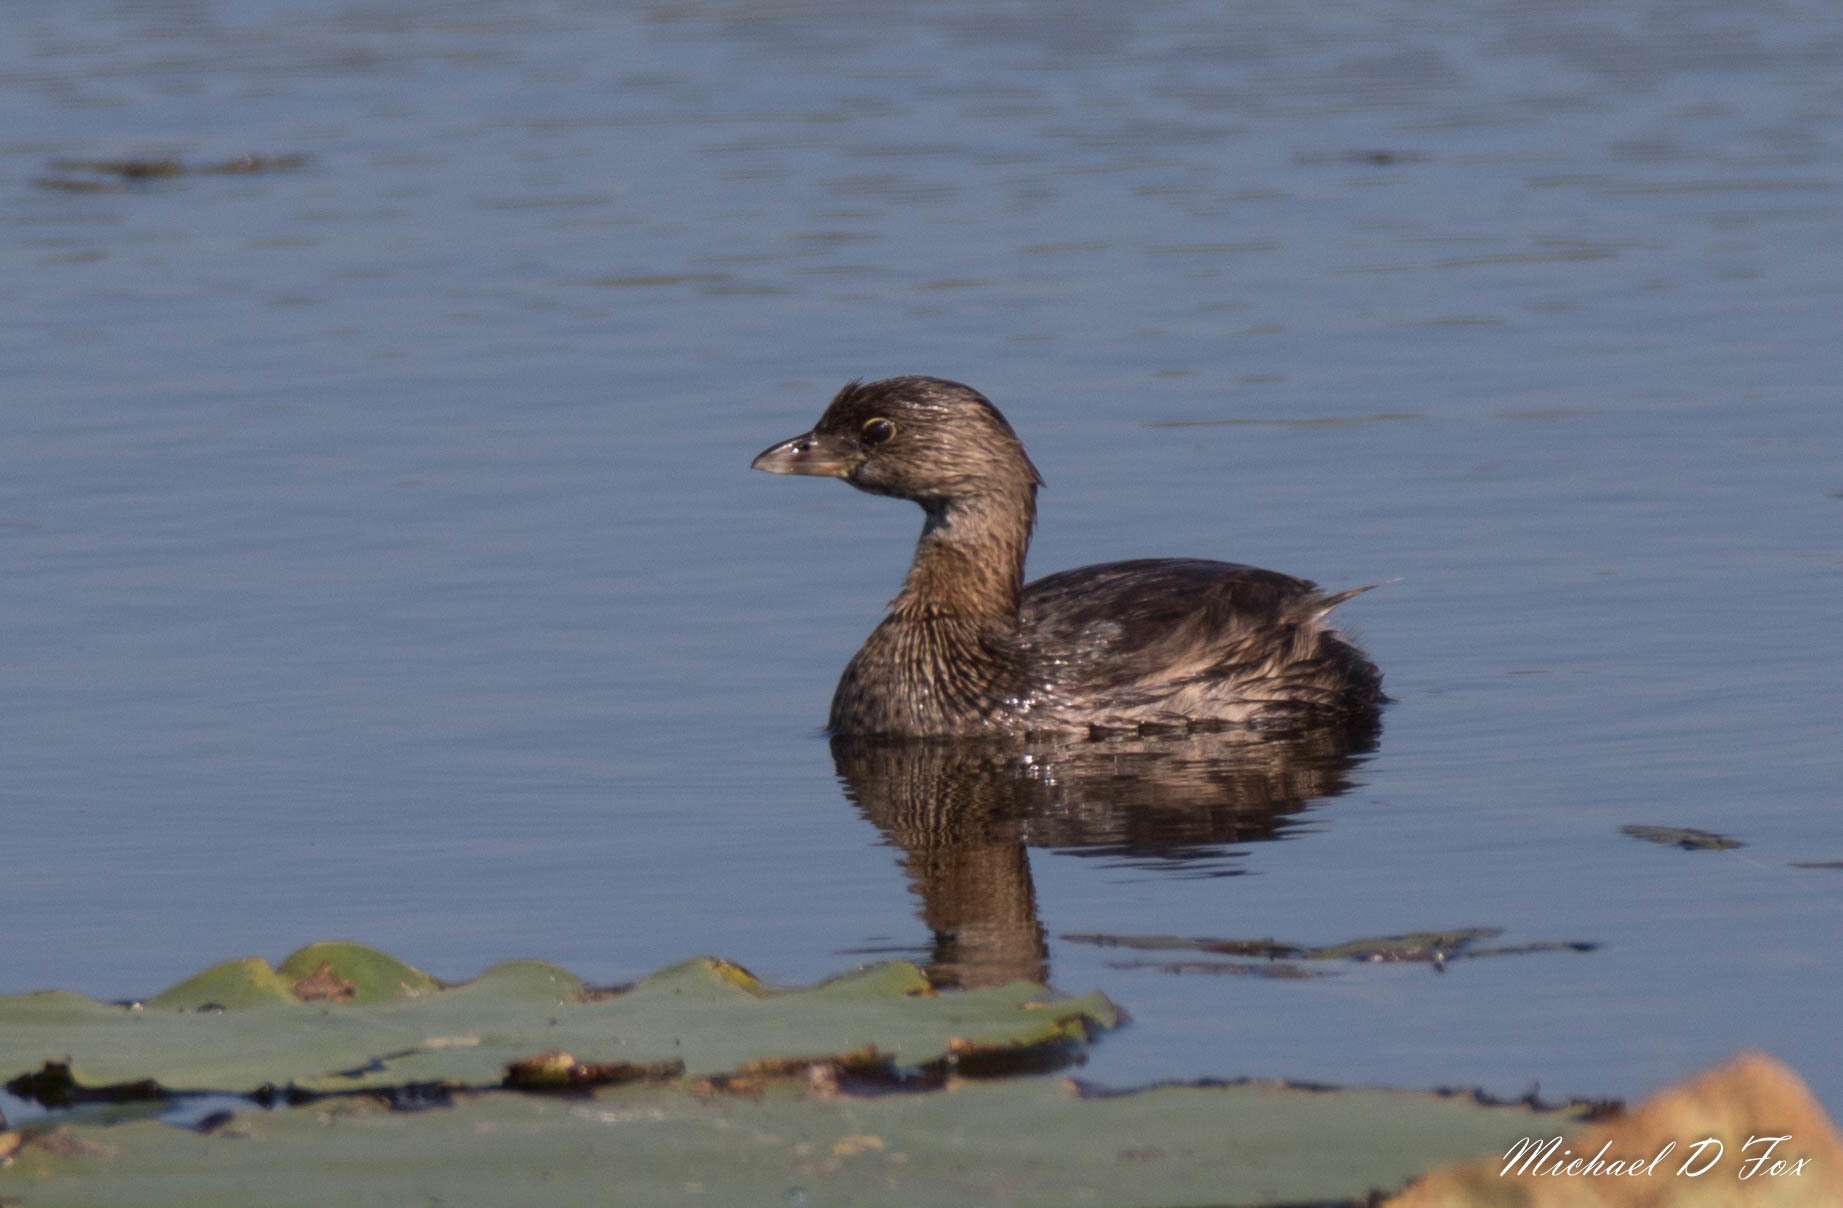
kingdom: Animalia
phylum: Chordata
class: Aves
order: Podicipediformes
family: Podicipedidae
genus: Podilymbus
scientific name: Podilymbus podiceps
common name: Pied-billed grebe
